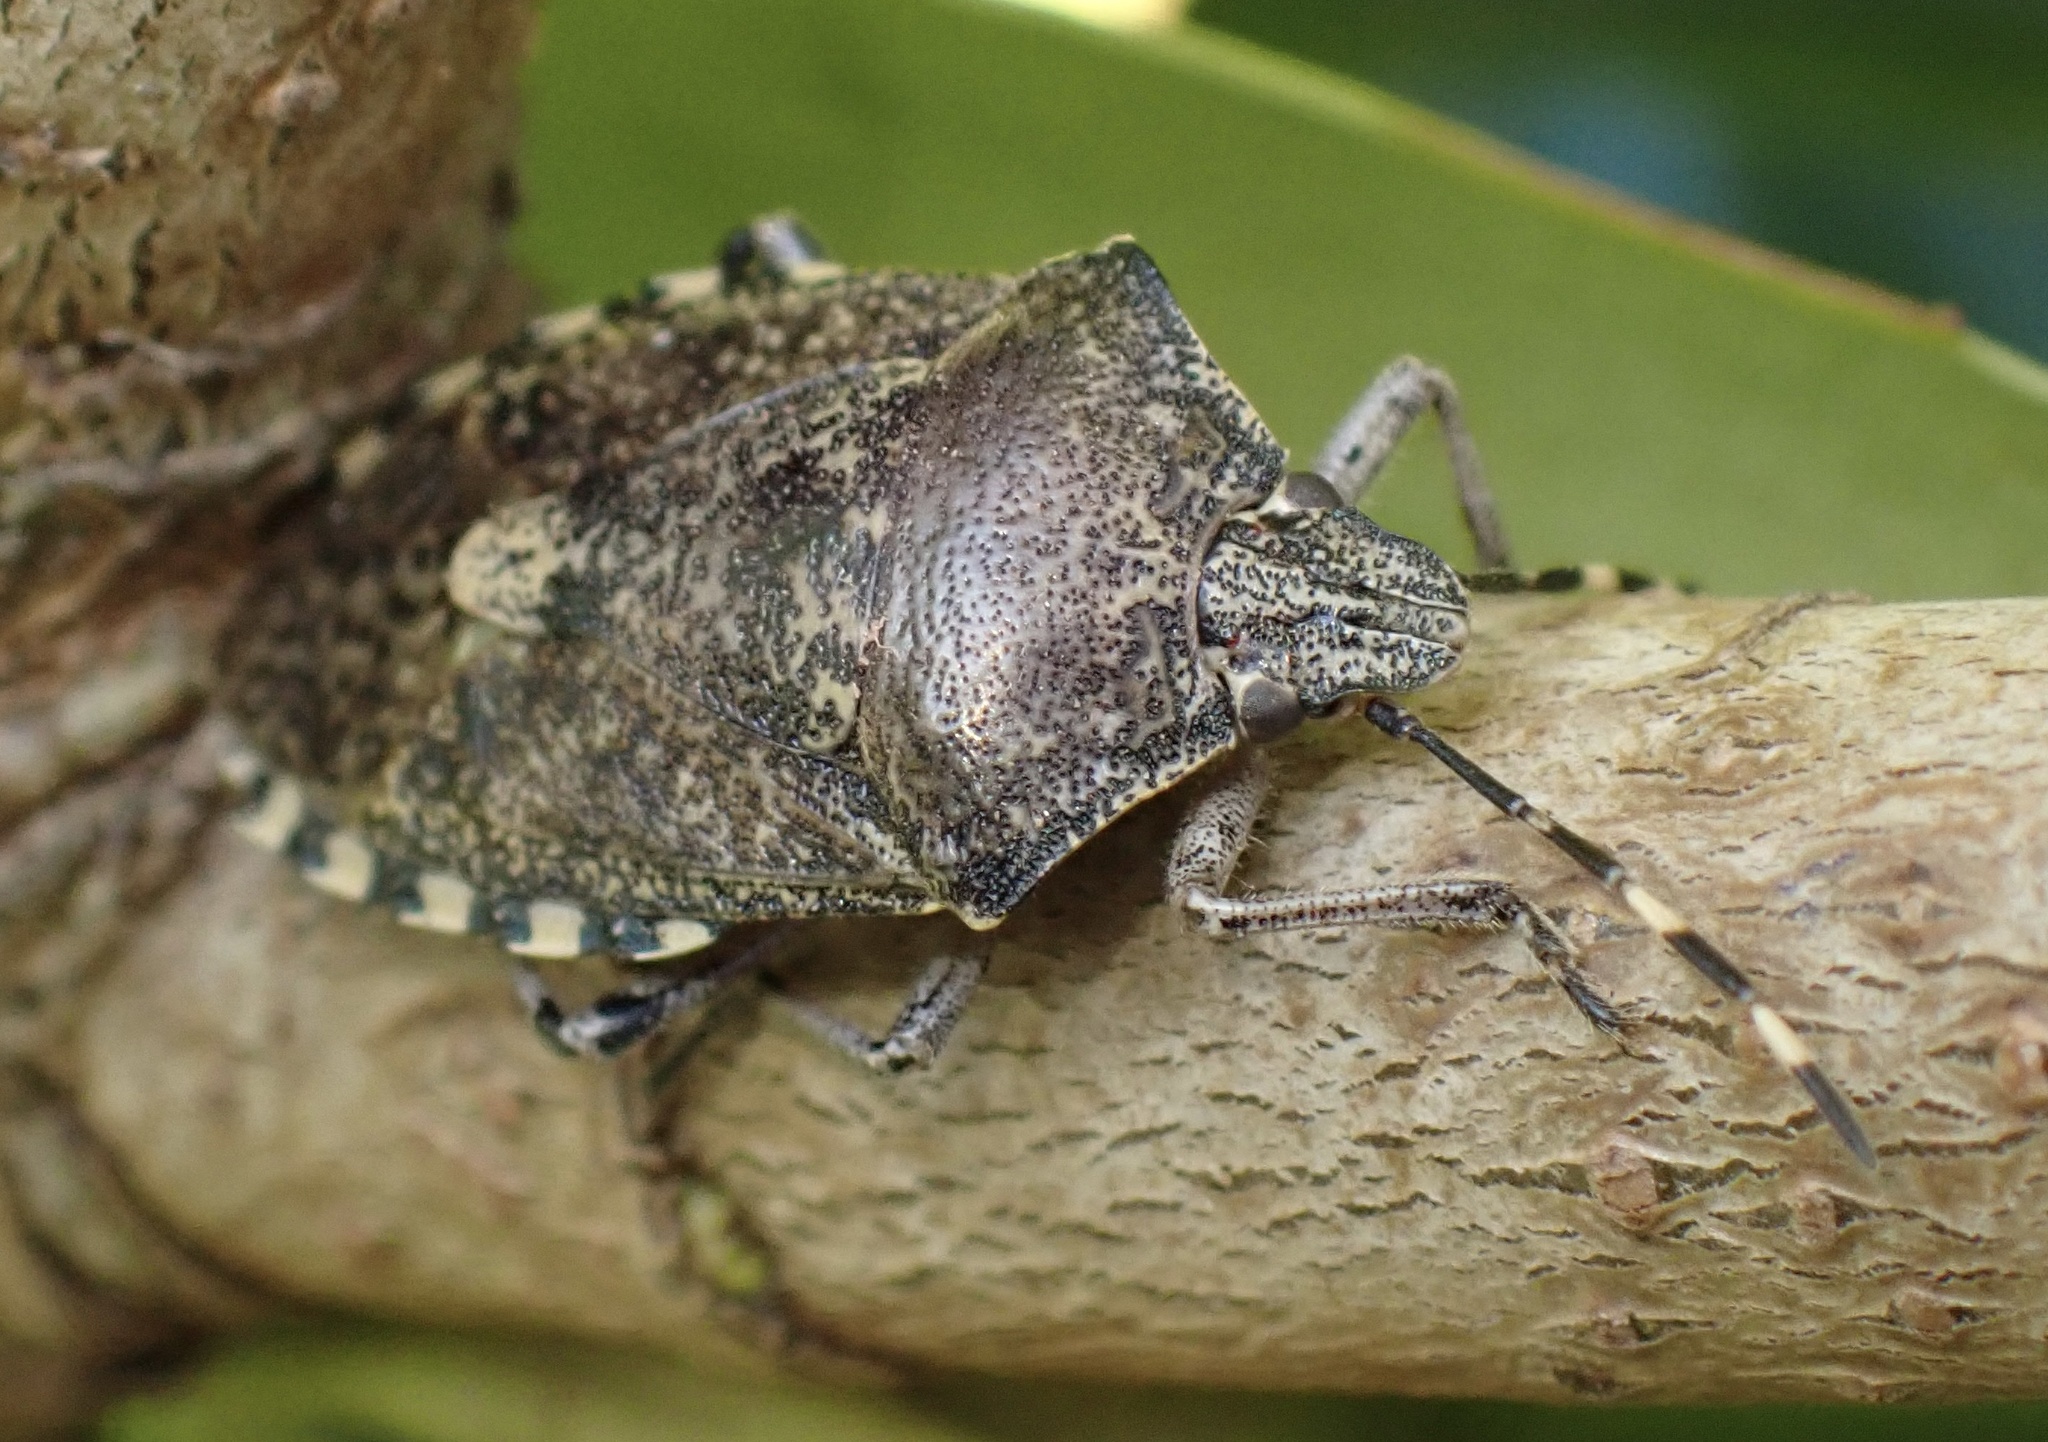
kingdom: Animalia
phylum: Arthropoda
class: Insecta
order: Hemiptera
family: Pentatomidae
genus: Rhaphigaster
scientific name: Rhaphigaster nebulosa
